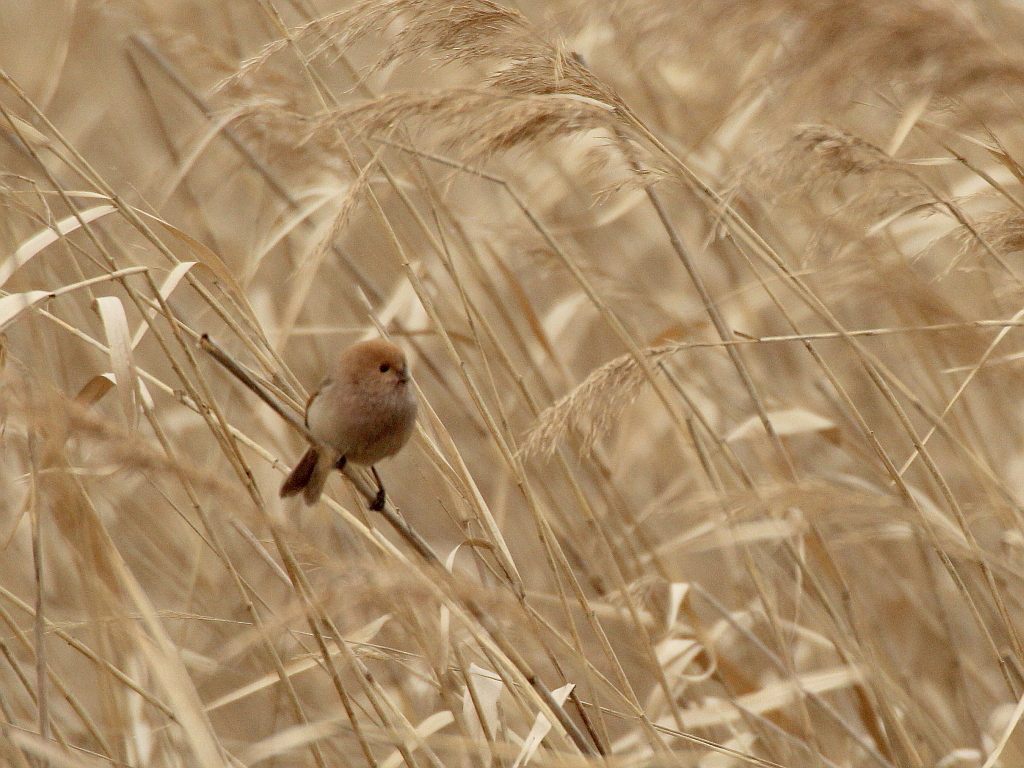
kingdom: Animalia
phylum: Chordata
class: Aves
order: Passeriformes
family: Sylviidae
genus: Sinosuthora
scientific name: Sinosuthora webbiana
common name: Vinous-throated parrotbill
